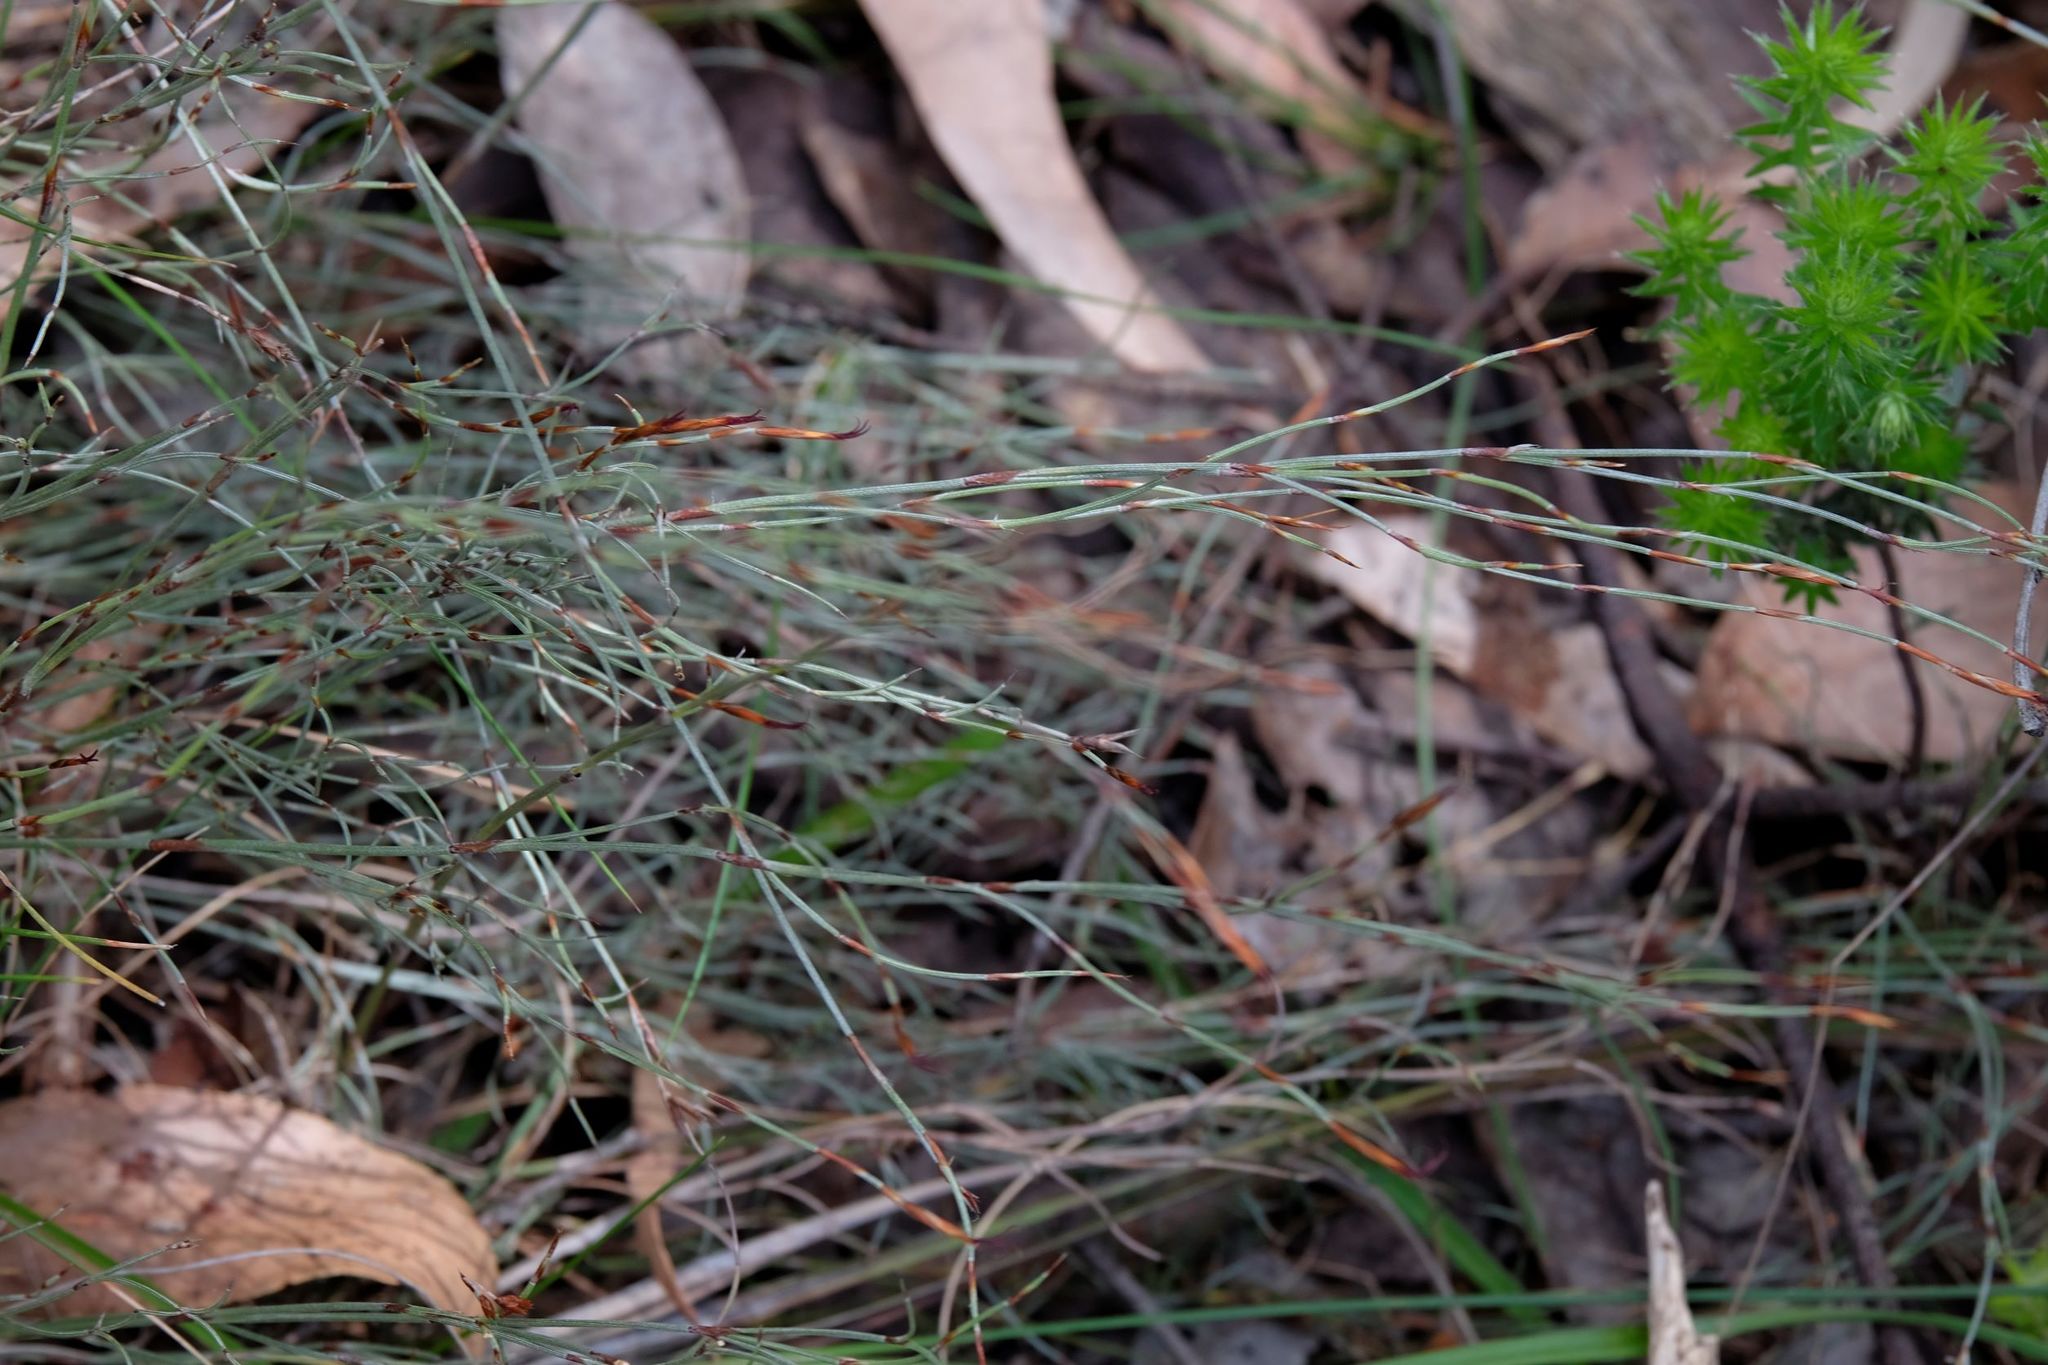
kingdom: Plantae
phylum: Tracheophyta
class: Liliopsida
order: Poales
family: Restionaceae
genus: Hypolaena
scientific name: Hypolaena fastigiata
